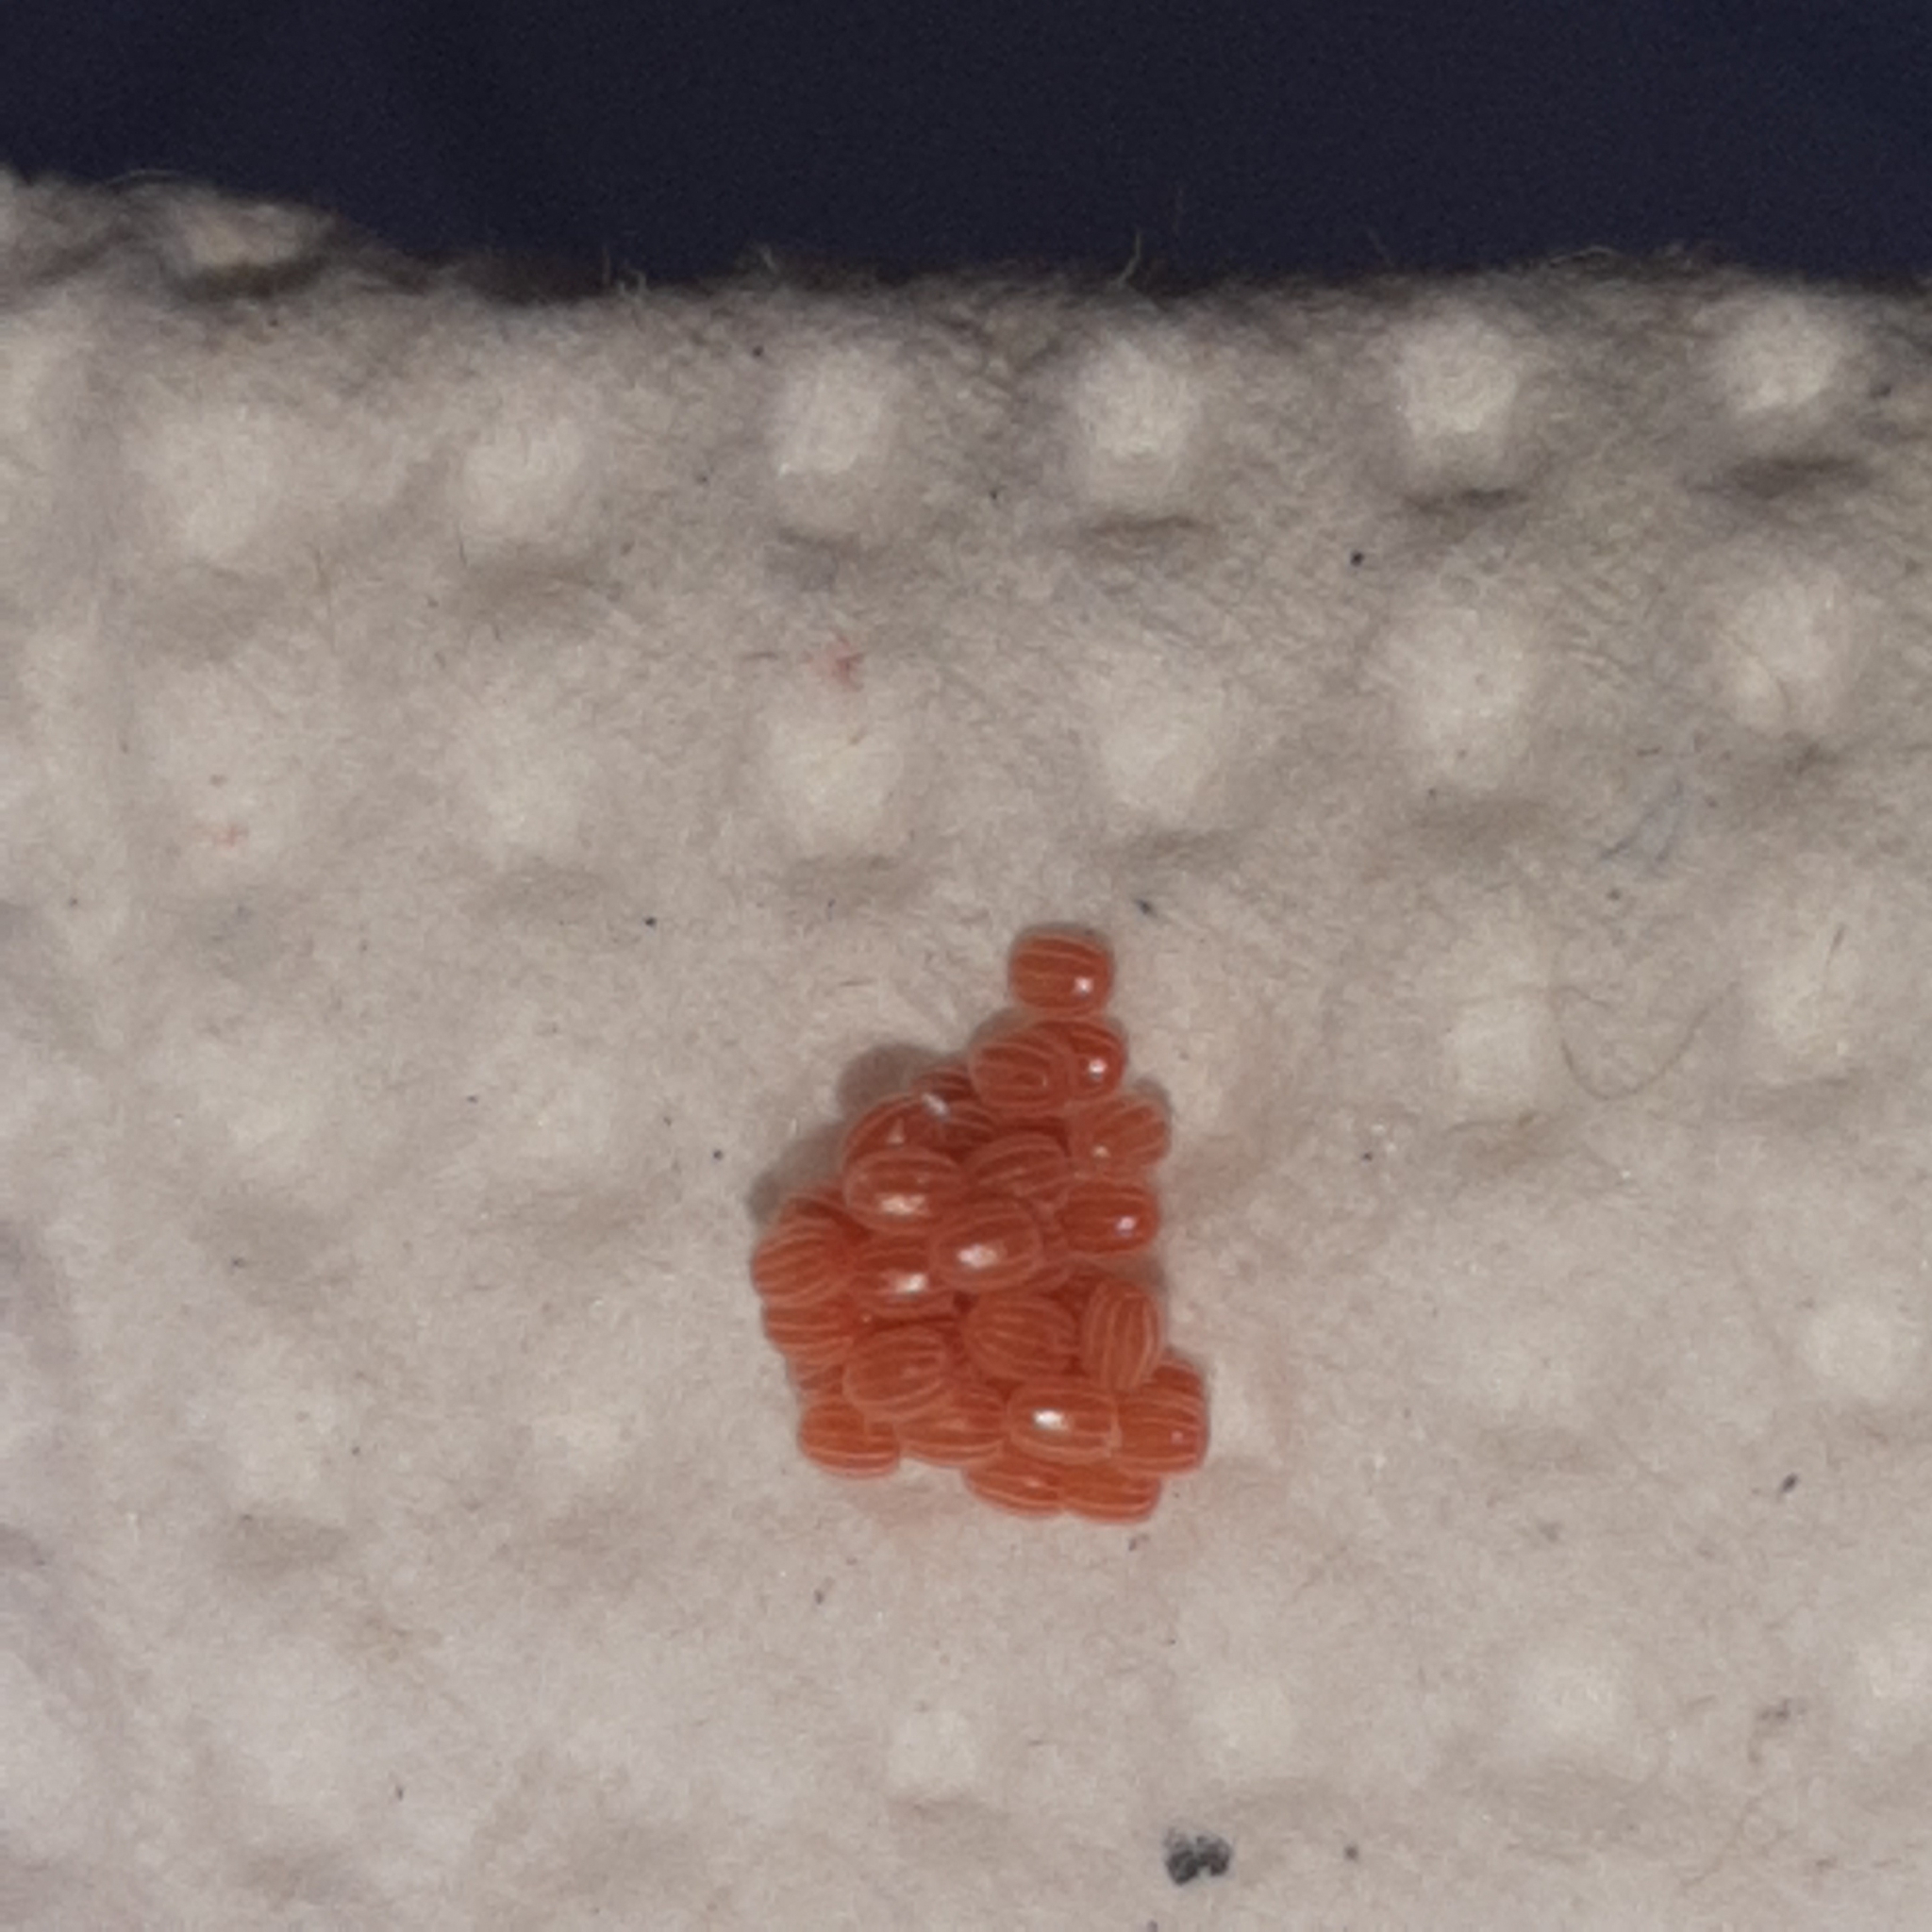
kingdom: Animalia
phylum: Arthropoda
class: Insecta
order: Lepidoptera
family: Geometridae
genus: Brachurapteryx
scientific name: Brachurapteryx tesserata
